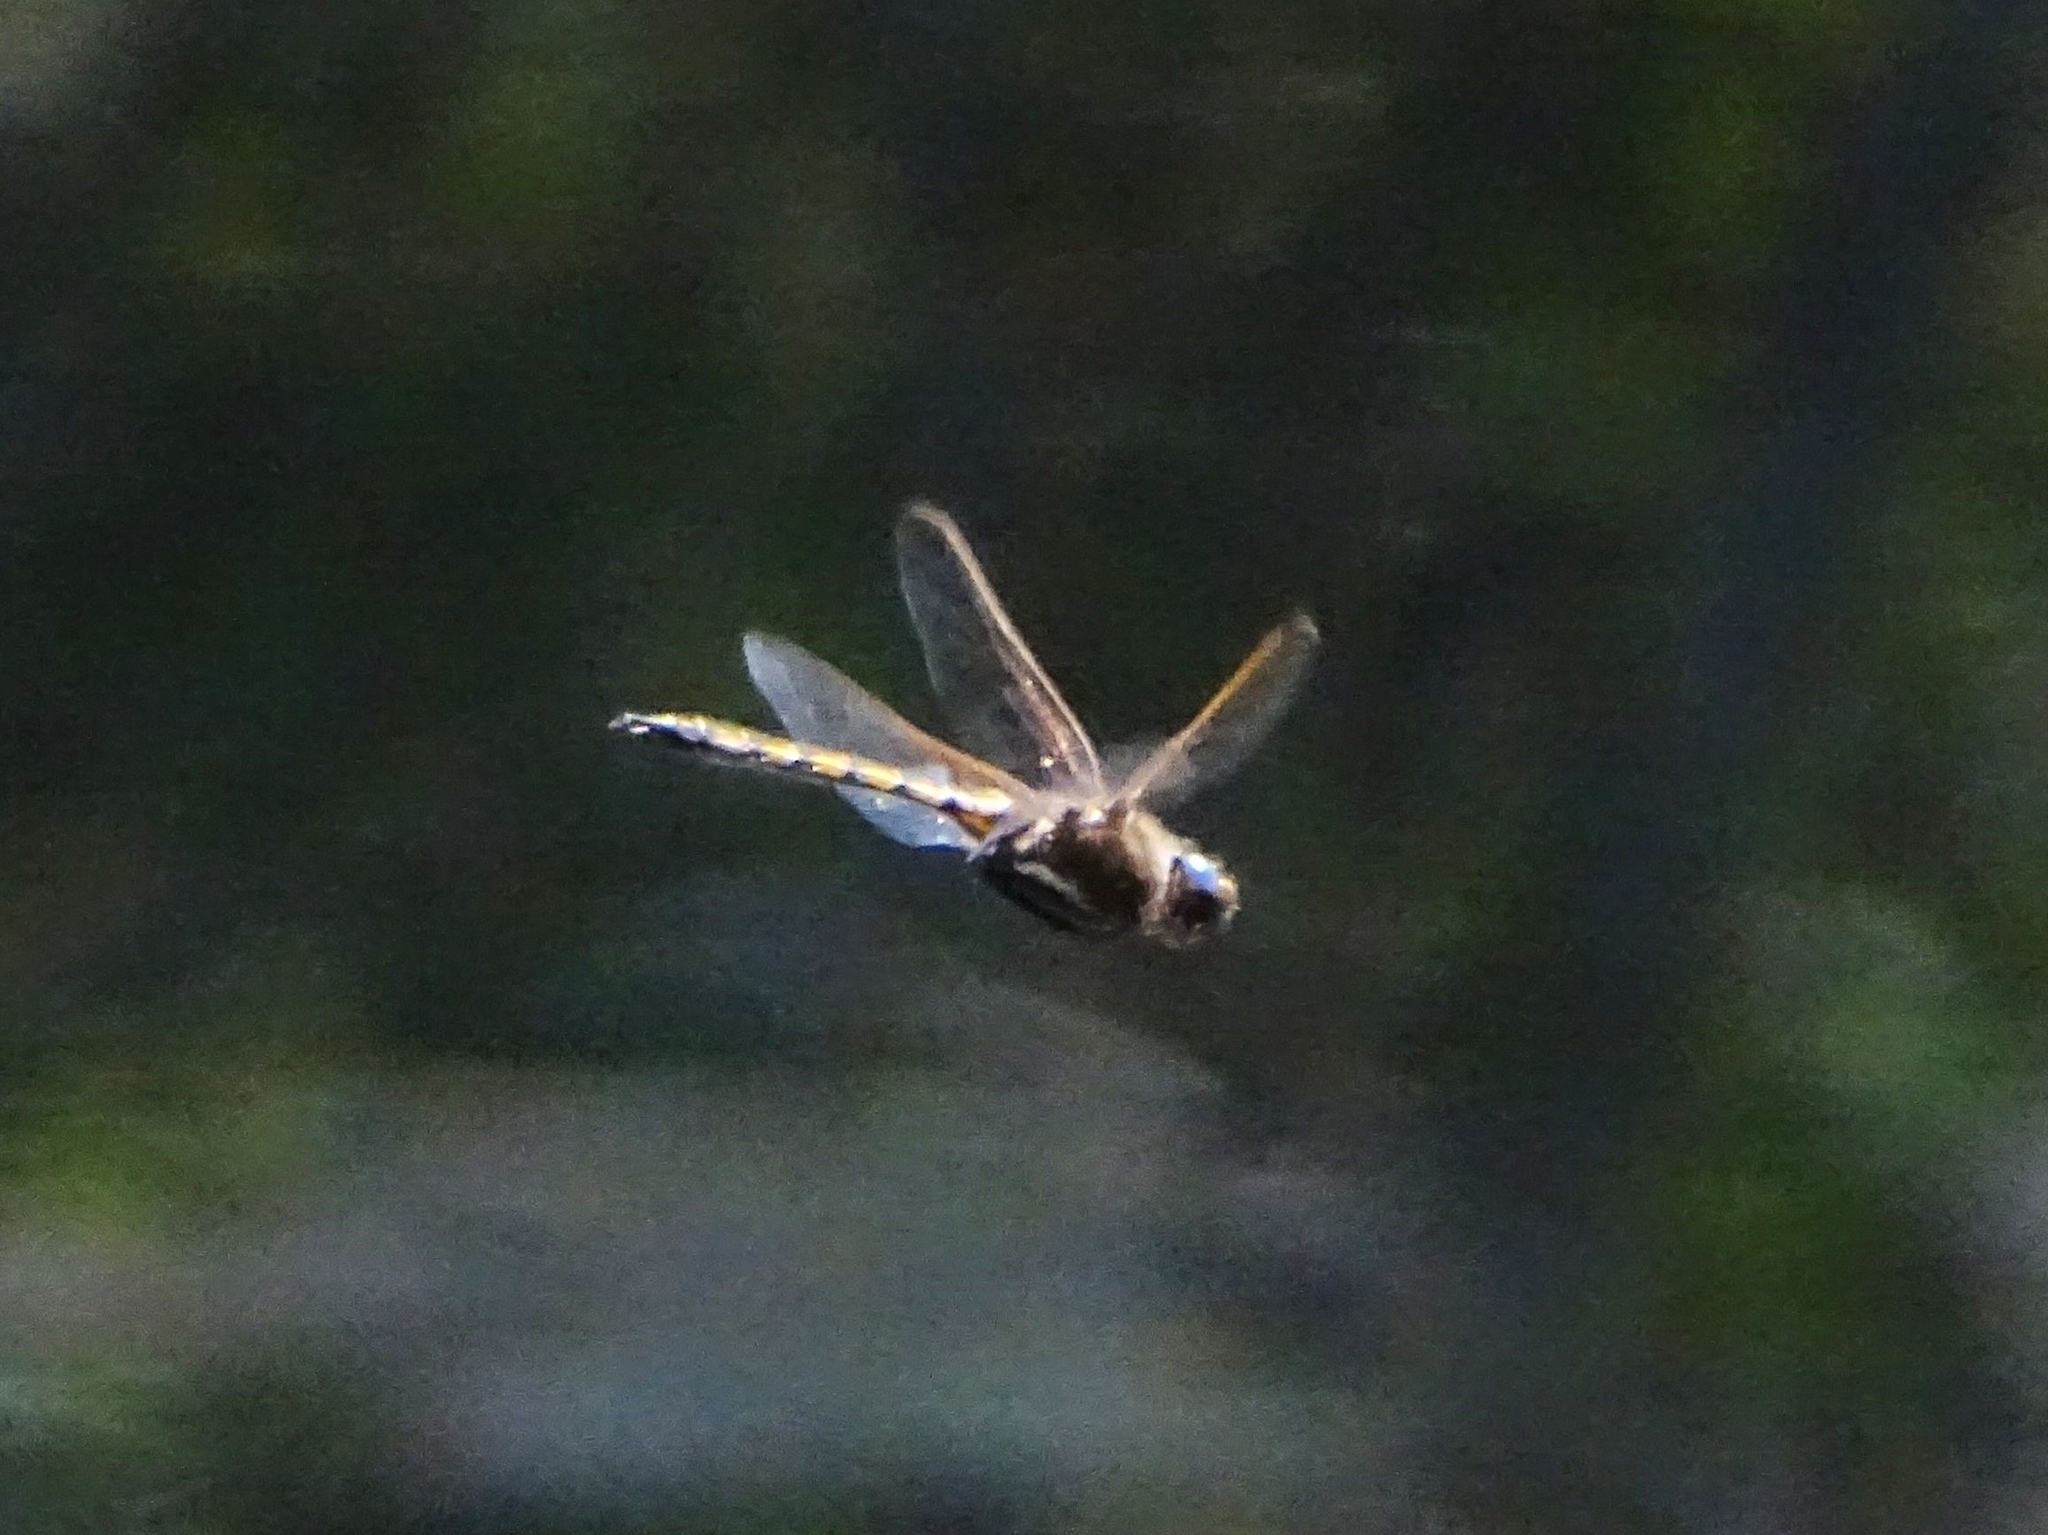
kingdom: Animalia
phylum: Arthropoda
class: Insecta
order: Odonata
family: Corduliidae
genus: Epitheca
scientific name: Epitheca canis
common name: Beaverpond baskettail
